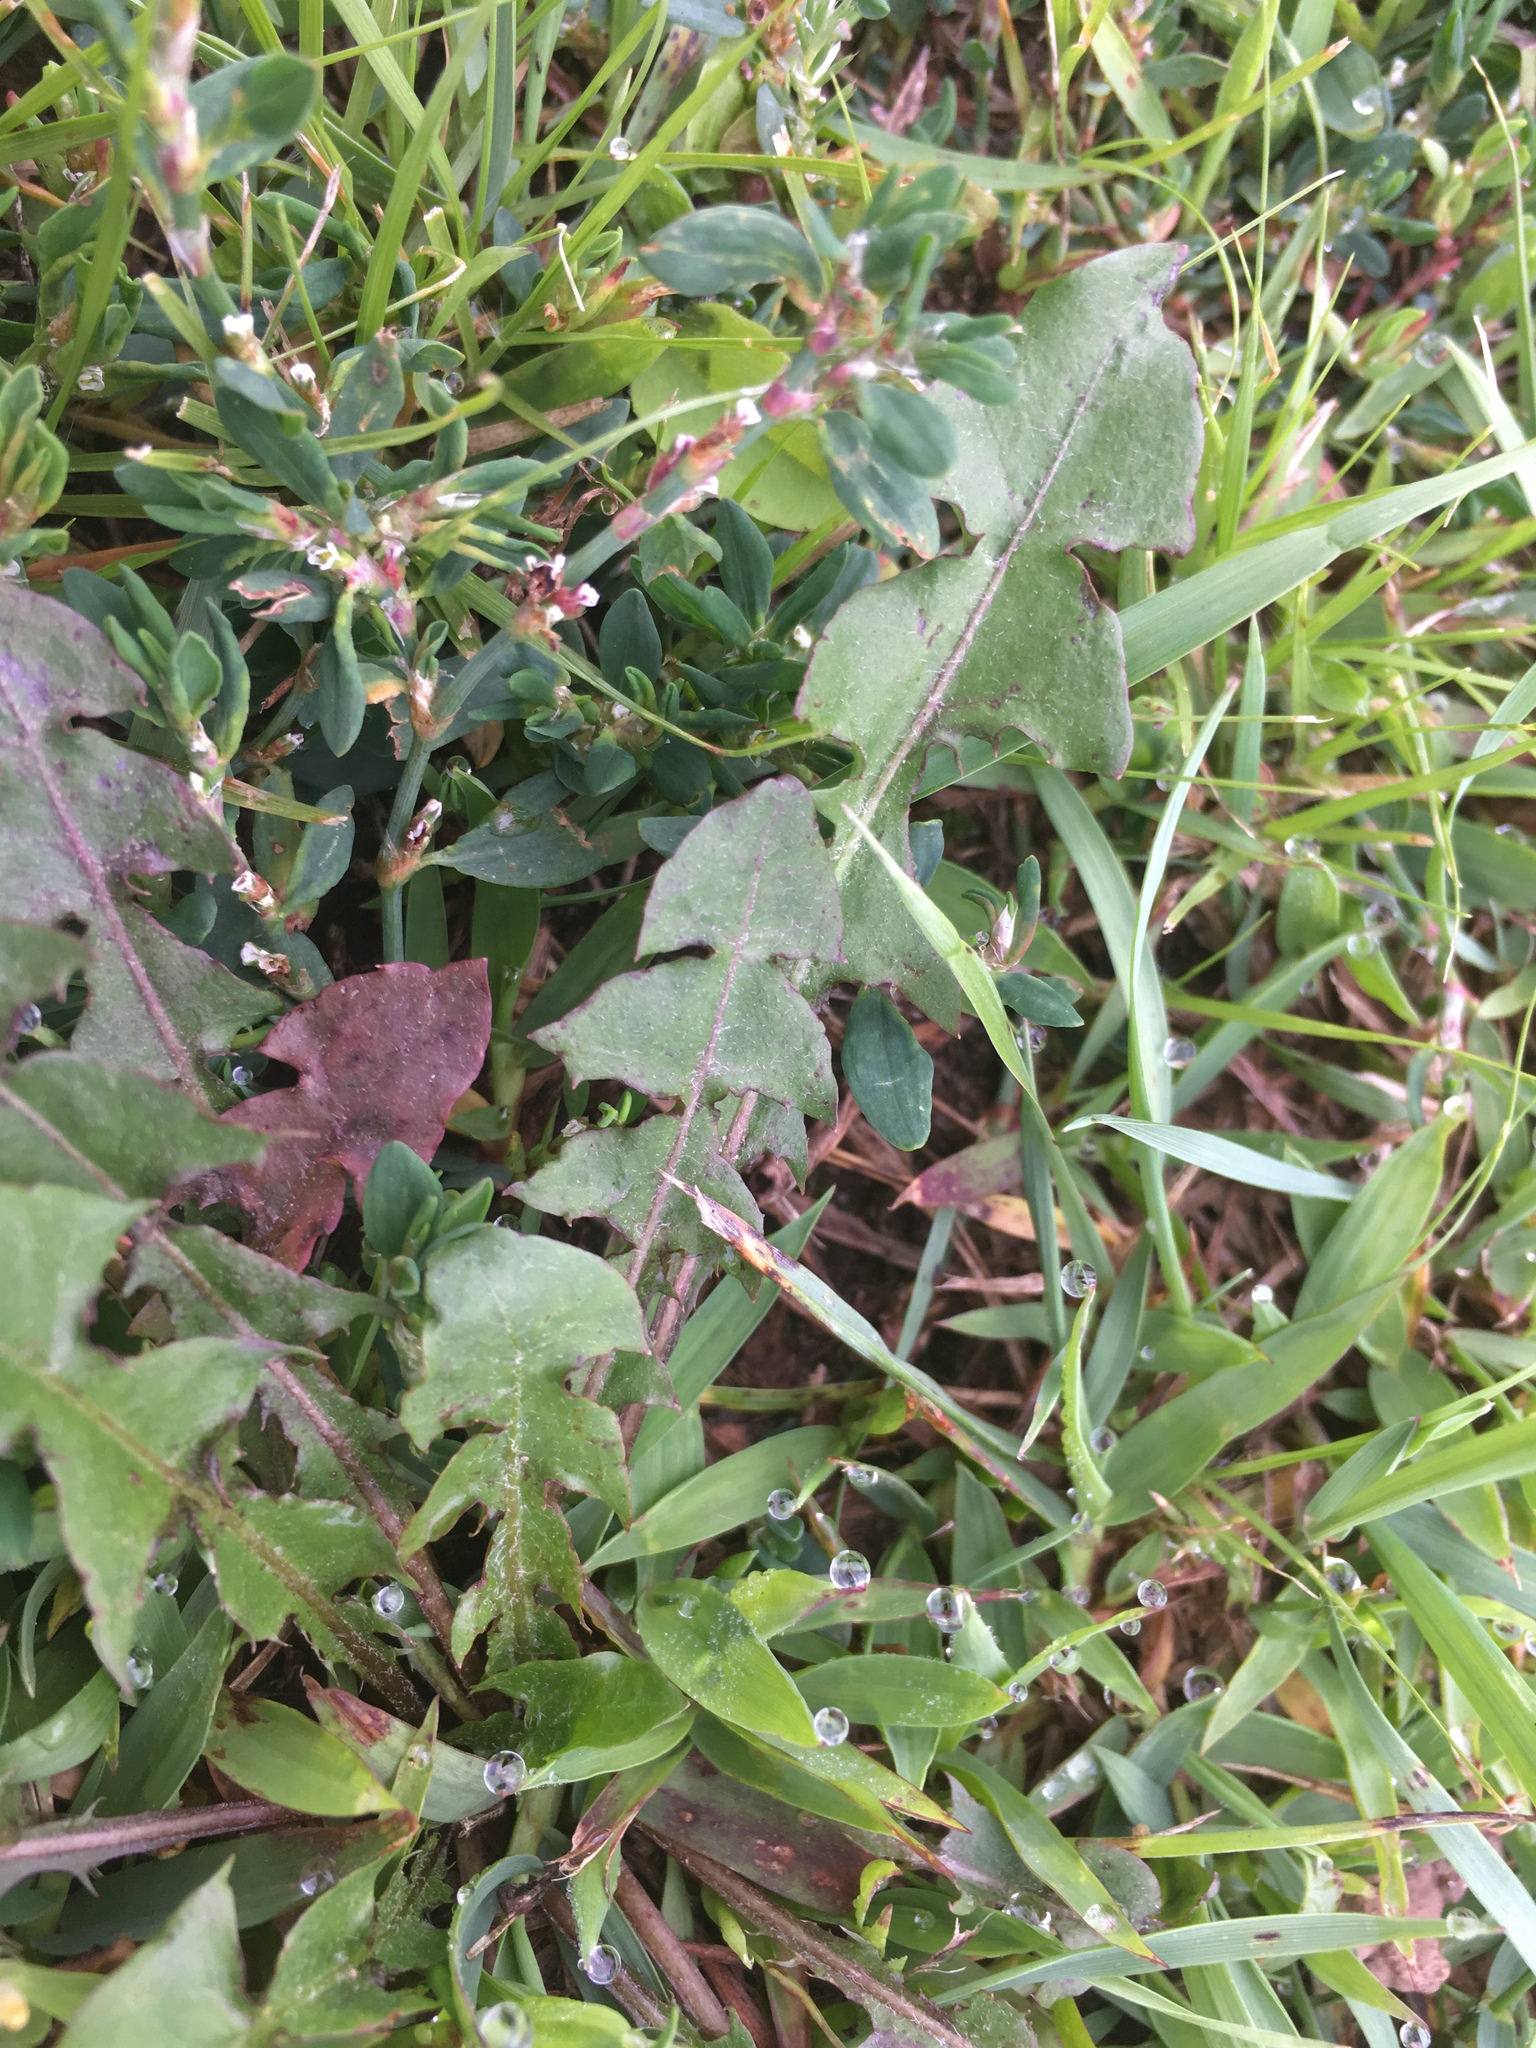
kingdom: Plantae
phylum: Tracheophyta
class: Magnoliopsida
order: Asterales
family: Asteraceae
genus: Taraxacum
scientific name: Taraxacum erythrospermum
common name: Rock dandelion
